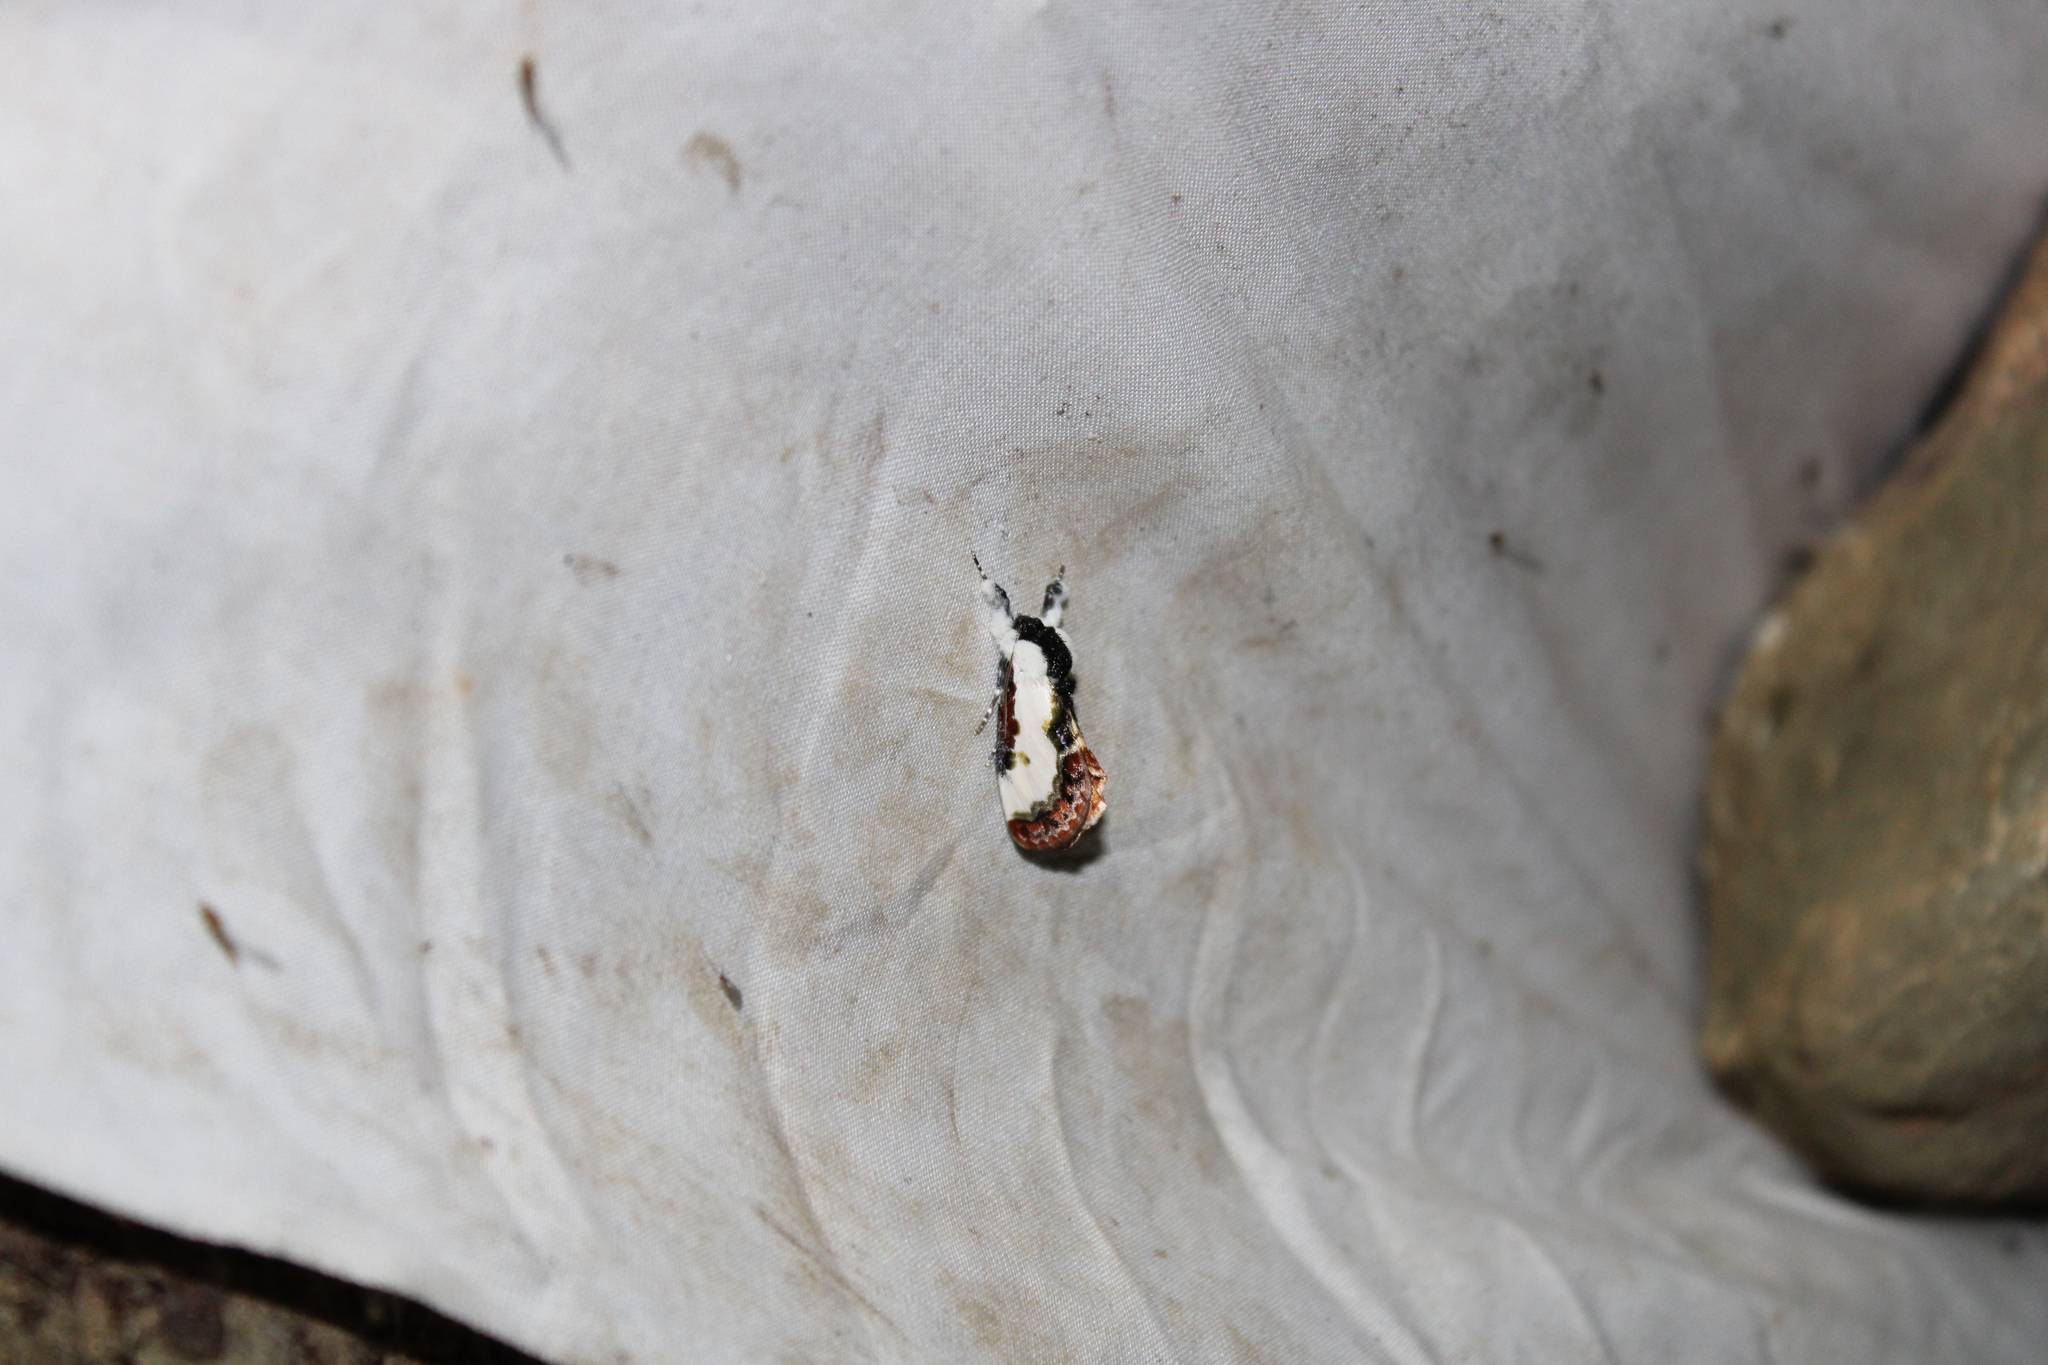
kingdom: Animalia
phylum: Arthropoda
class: Insecta
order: Lepidoptera
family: Noctuidae
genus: Eudryas
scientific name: Eudryas unio
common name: Pearly wood-nymph
